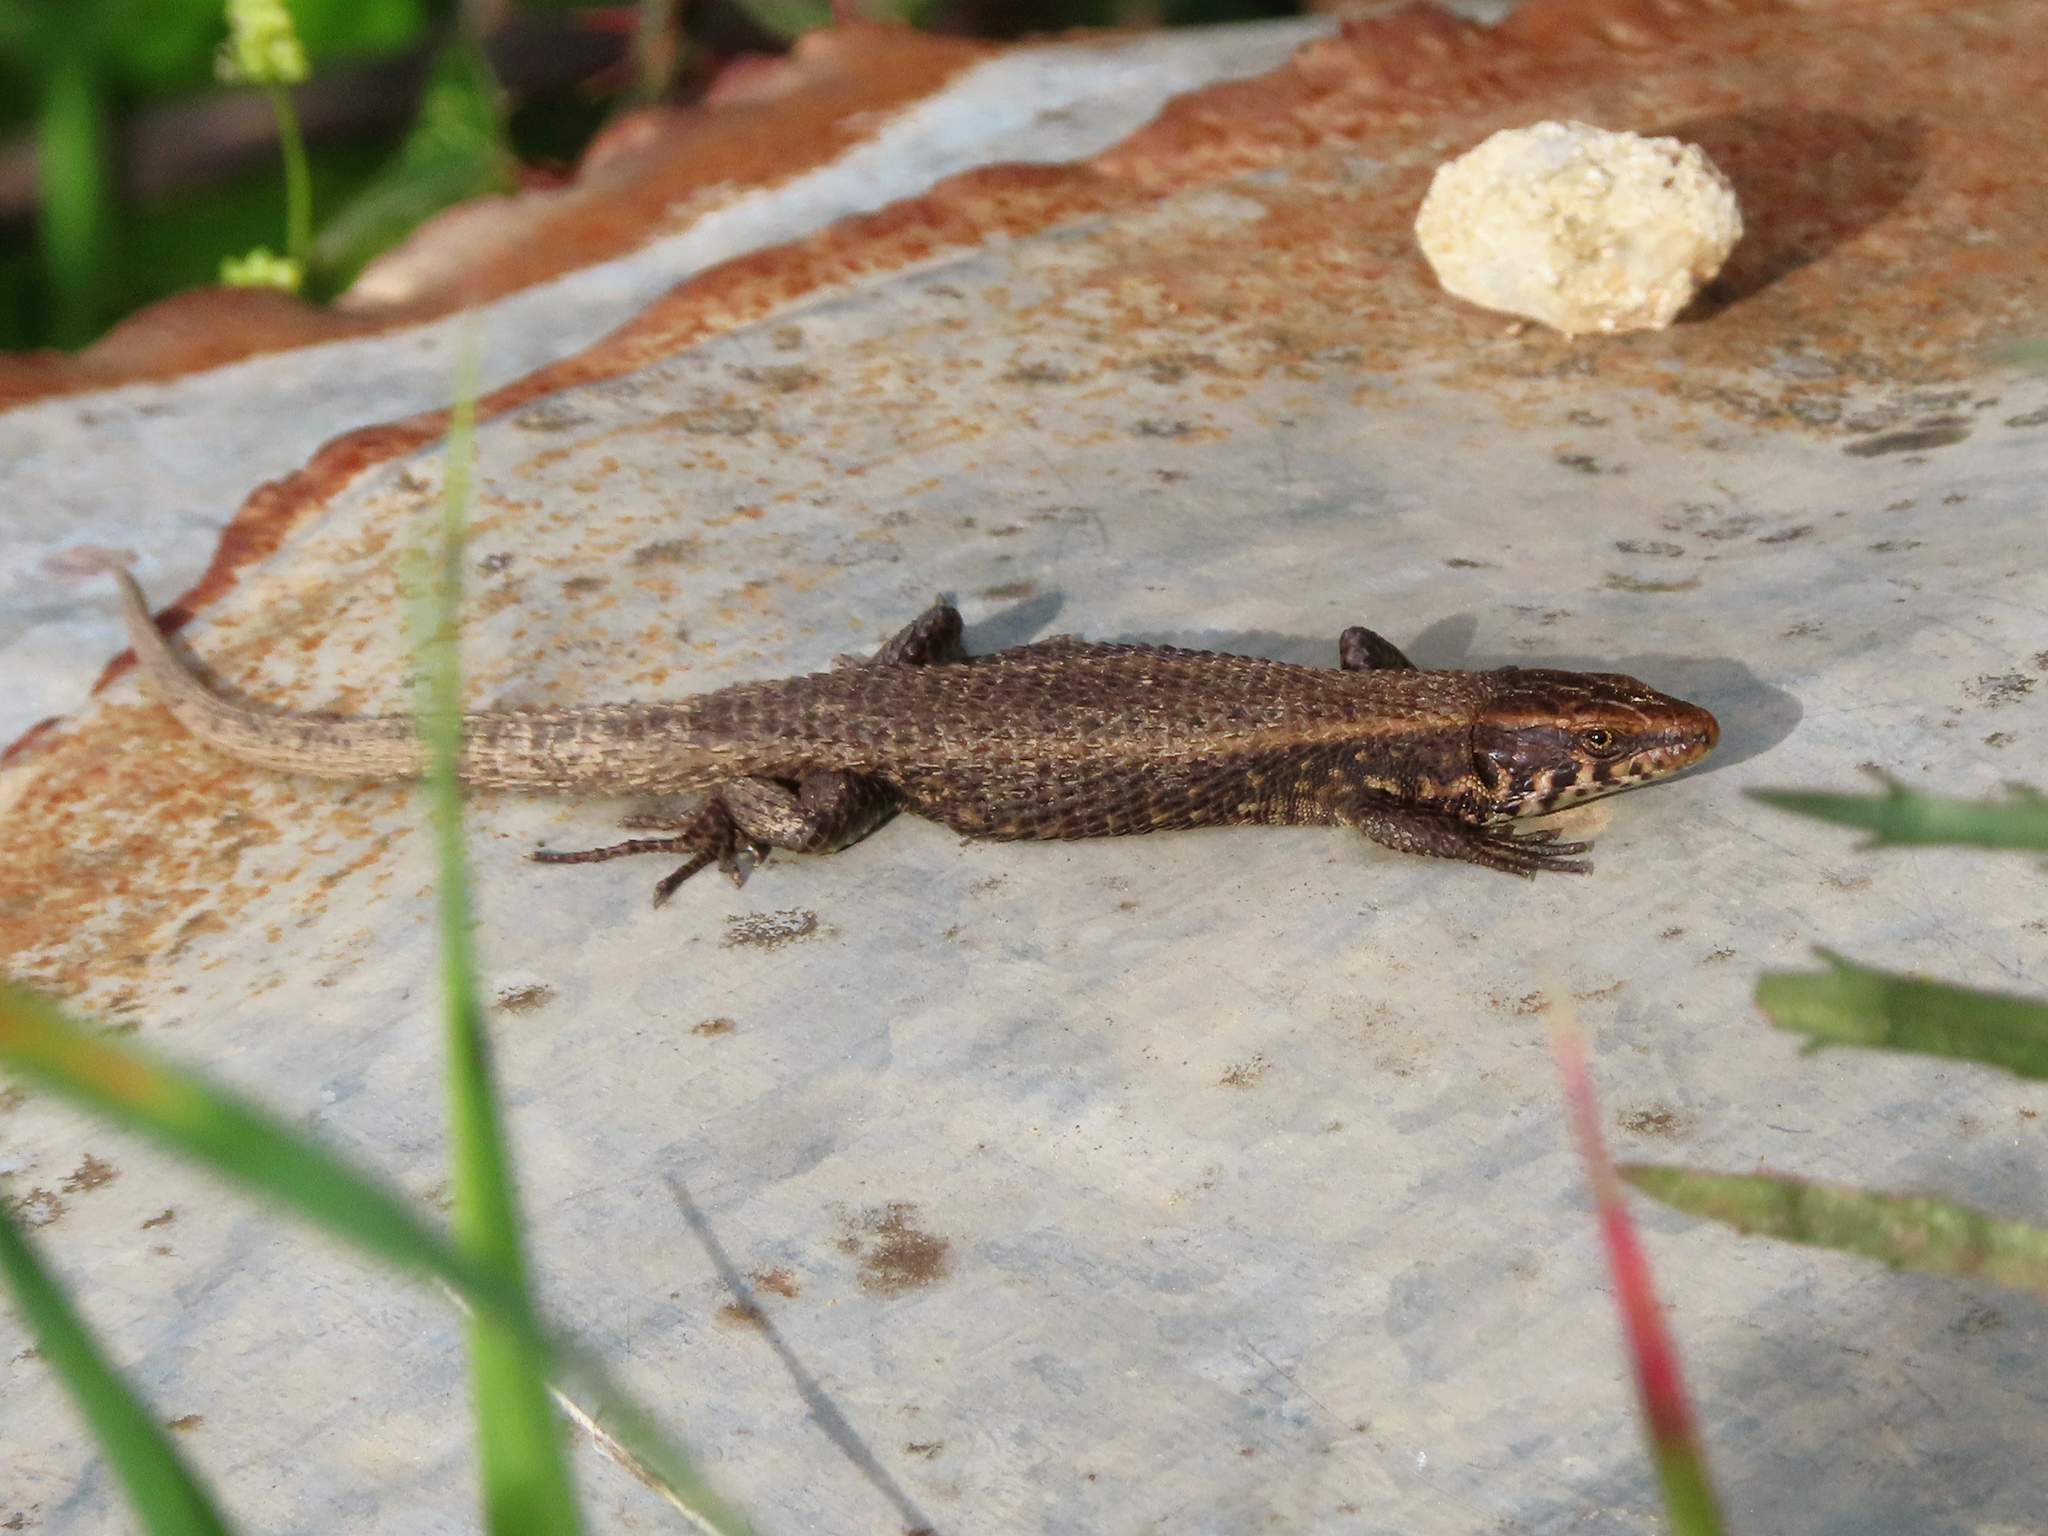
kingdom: Animalia
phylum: Chordata
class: Squamata
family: Lacertidae
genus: Algyroides
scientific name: Algyroides moreoticus
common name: Greek algyroides
